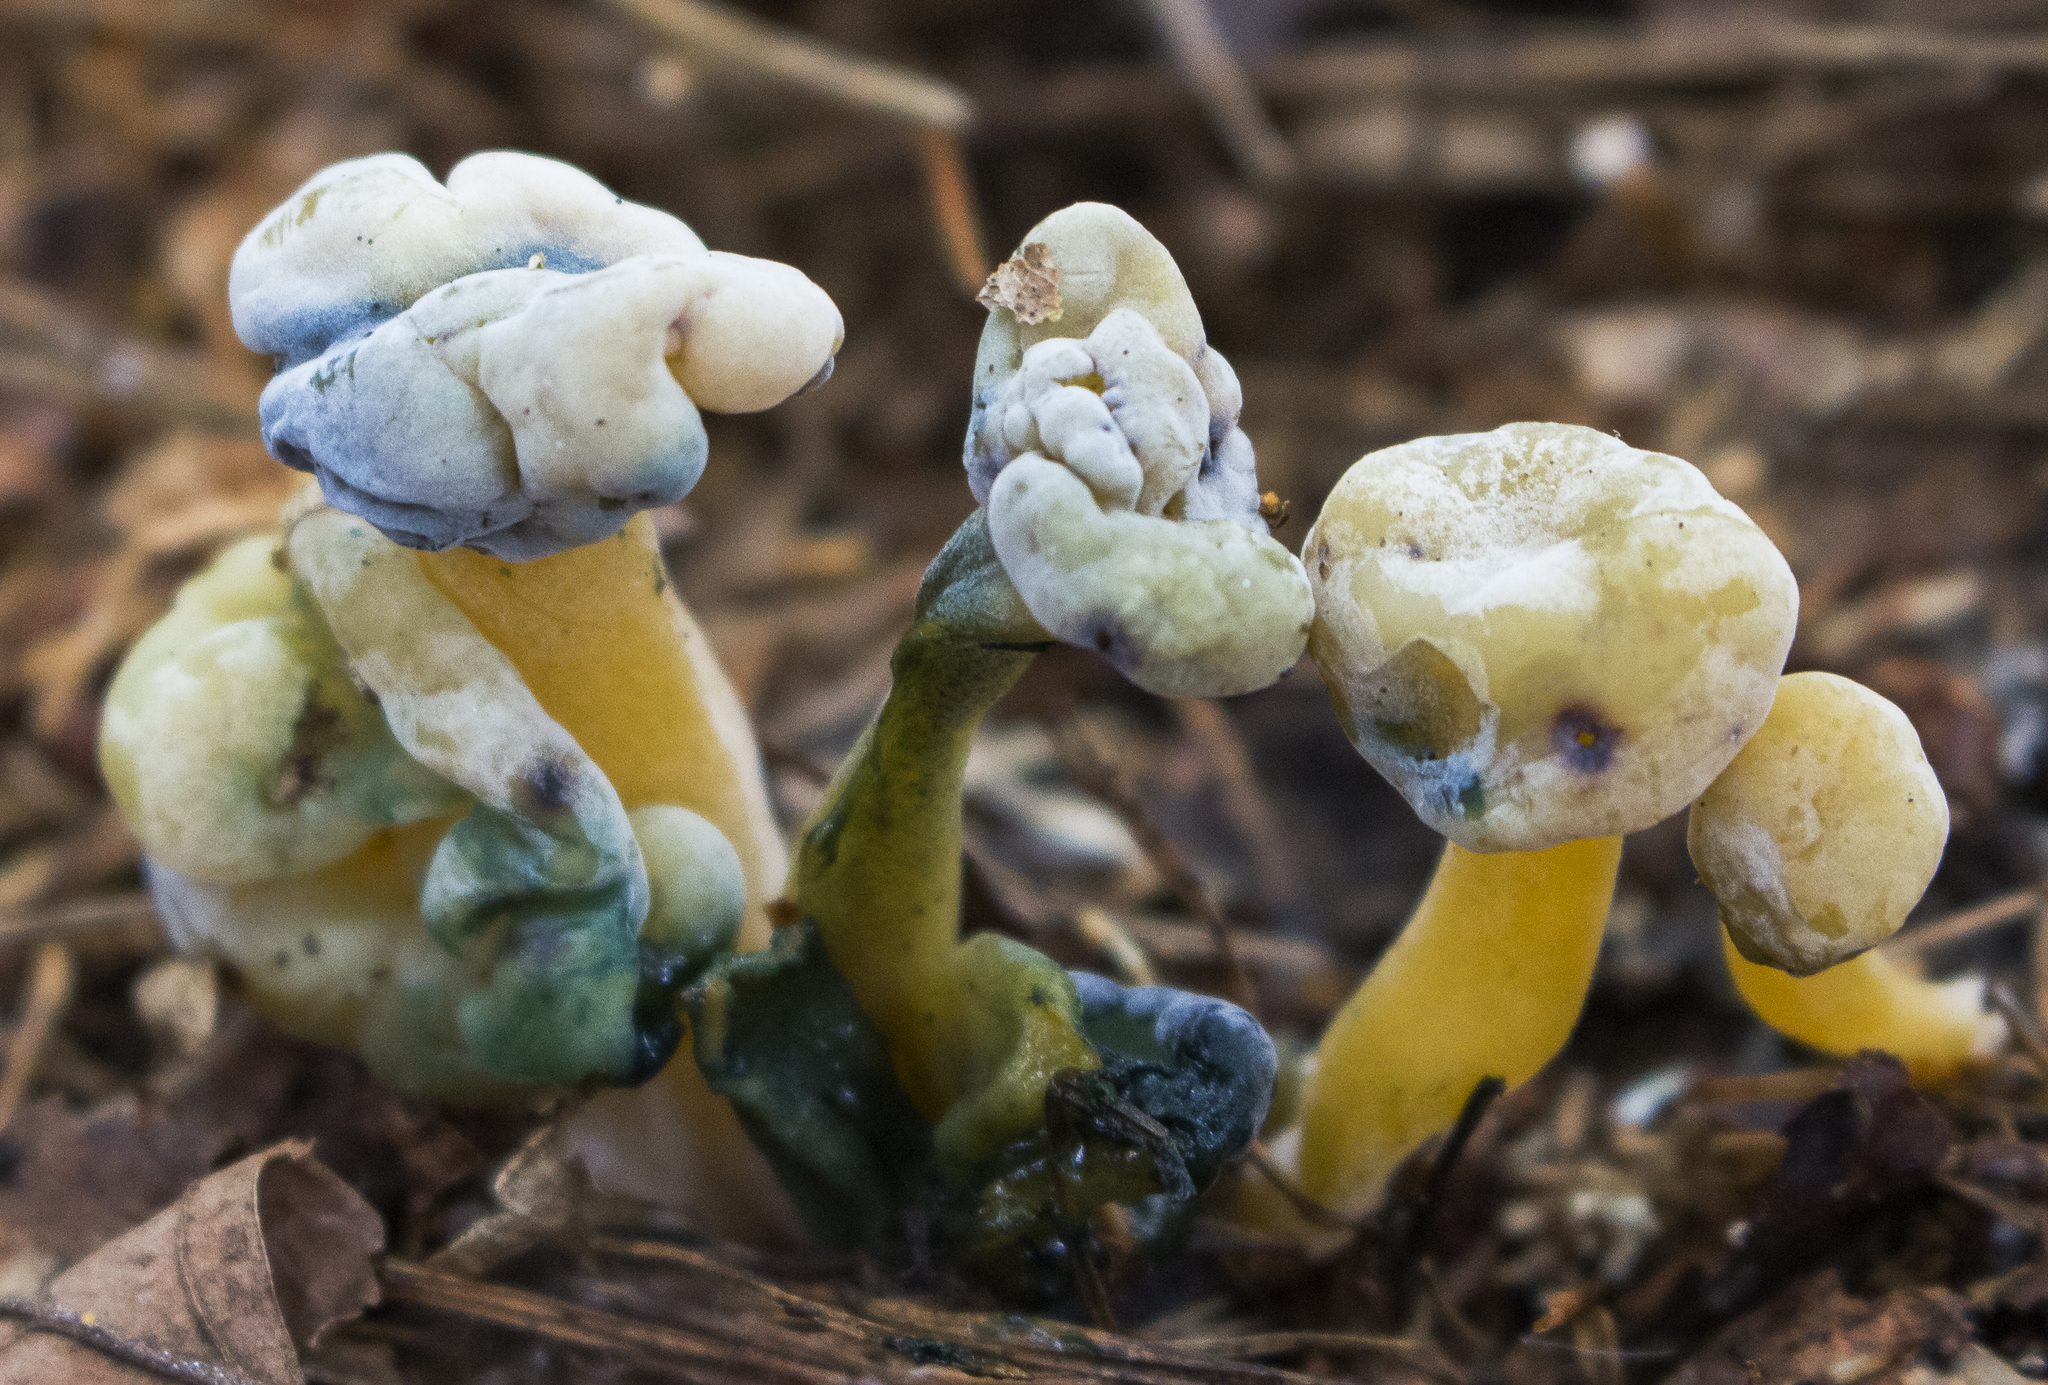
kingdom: Fungi
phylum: Ascomycota
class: Sordariomycetes
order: Hypocreales
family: Hypocreaceae
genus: Hypomyces
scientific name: Hypomyces leotiicola
